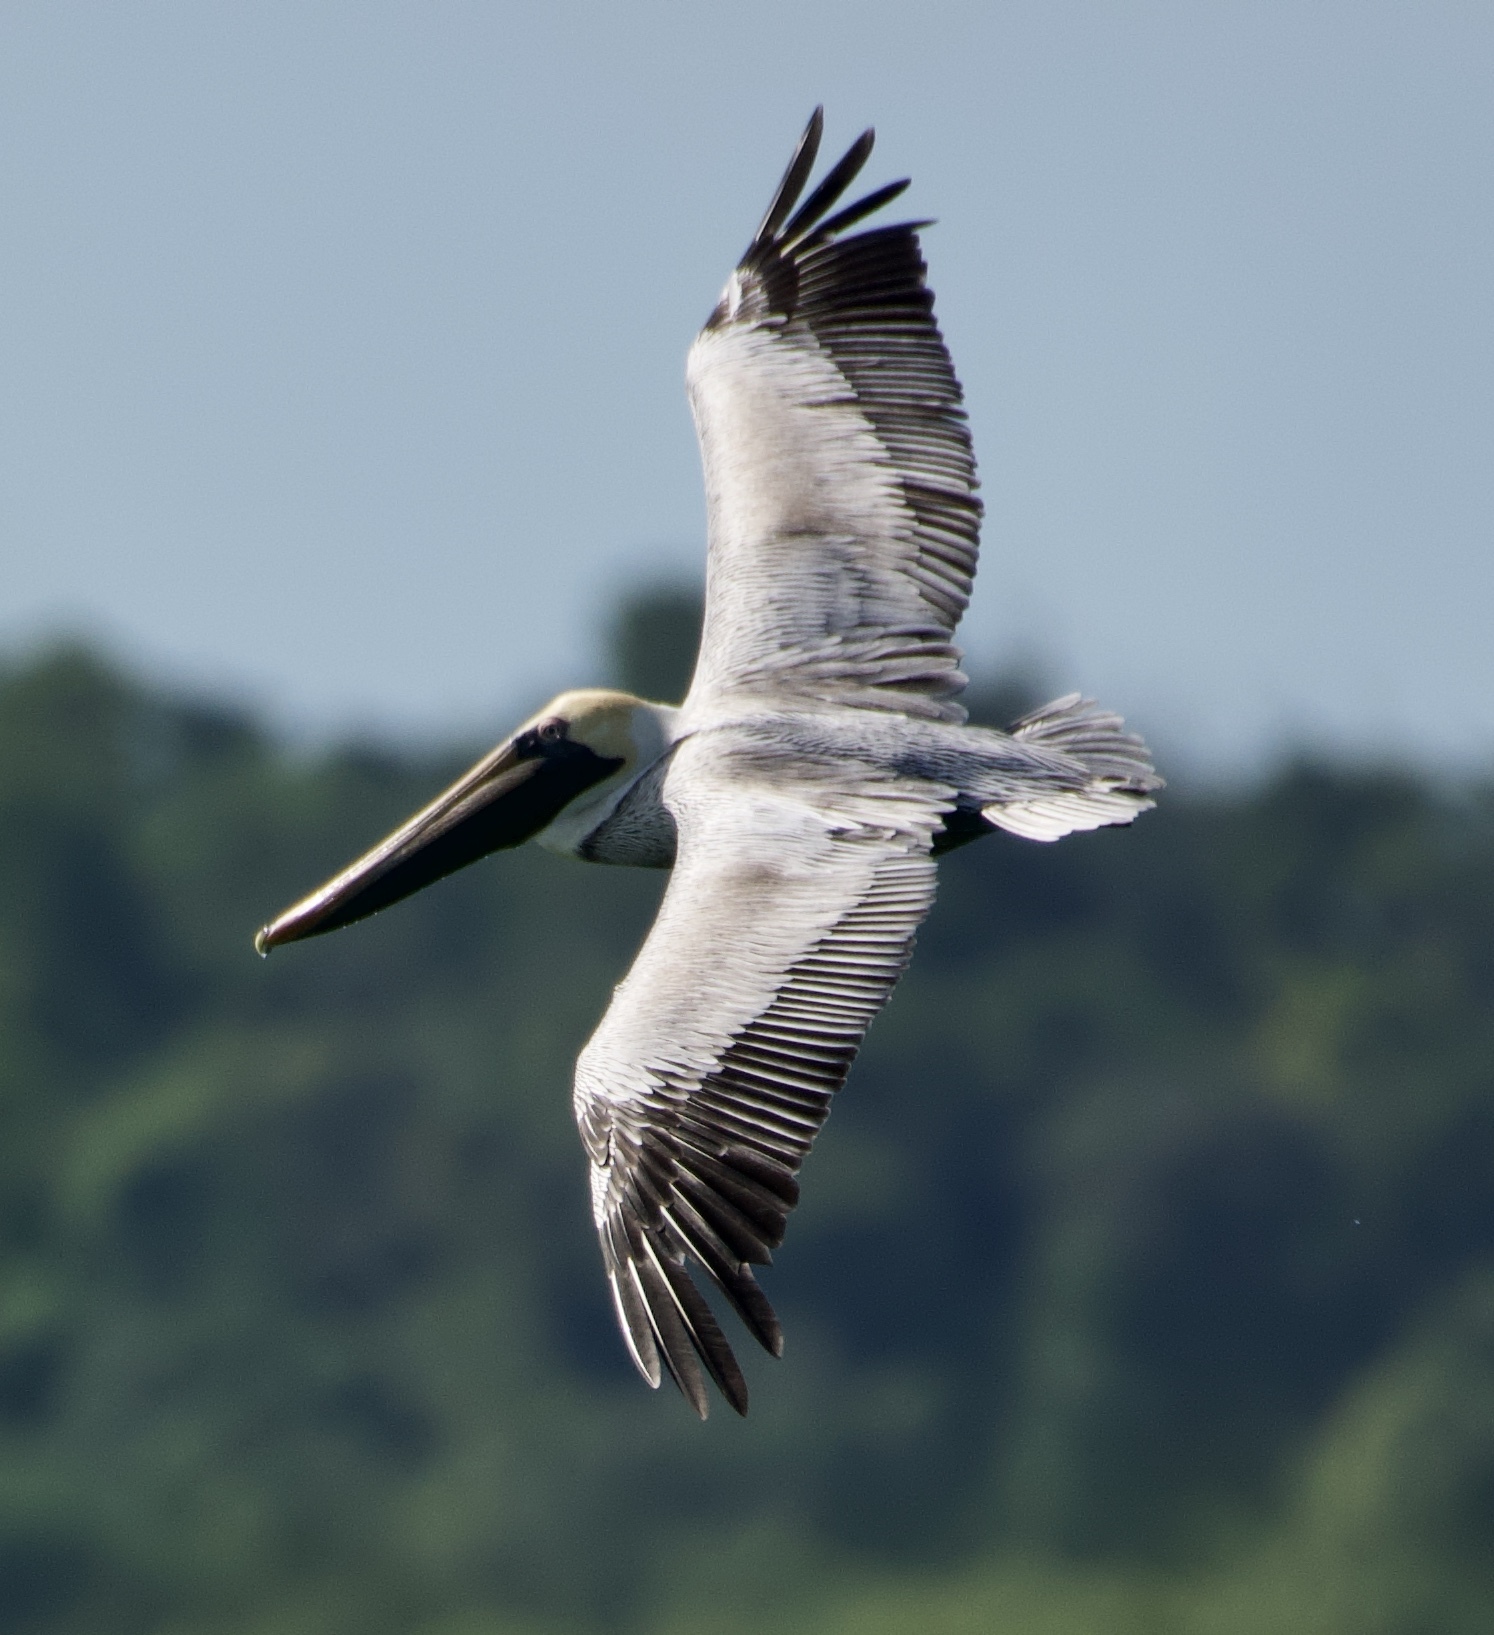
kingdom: Animalia
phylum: Chordata
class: Aves
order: Pelecaniformes
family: Pelecanidae
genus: Pelecanus
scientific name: Pelecanus occidentalis
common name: Brown pelican
